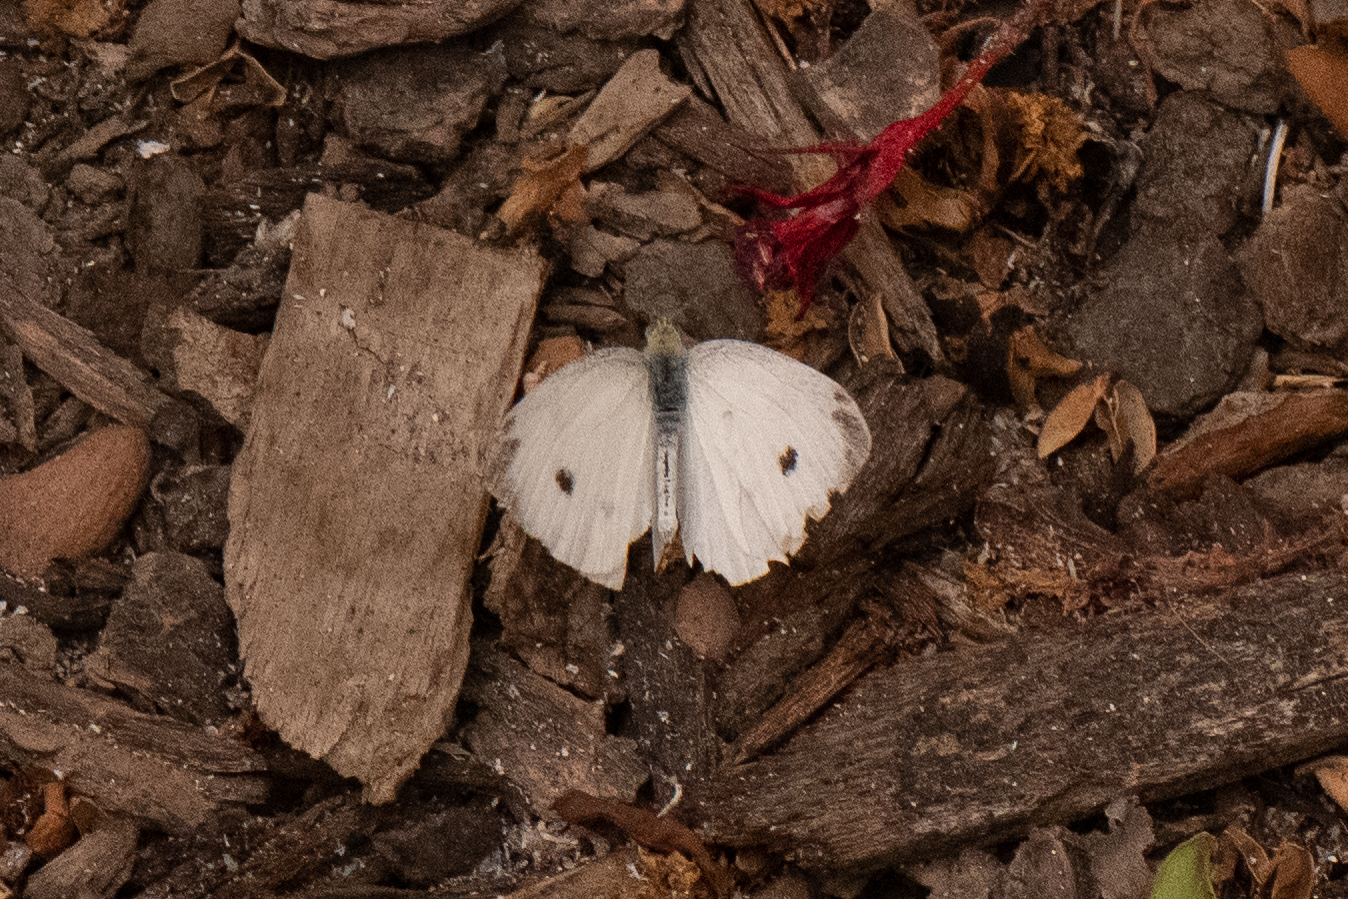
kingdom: Animalia
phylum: Arthropoda
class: Insecta
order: Lepidoptera
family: Pieridae
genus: Pieris
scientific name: Pieris rapae
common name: Small white
